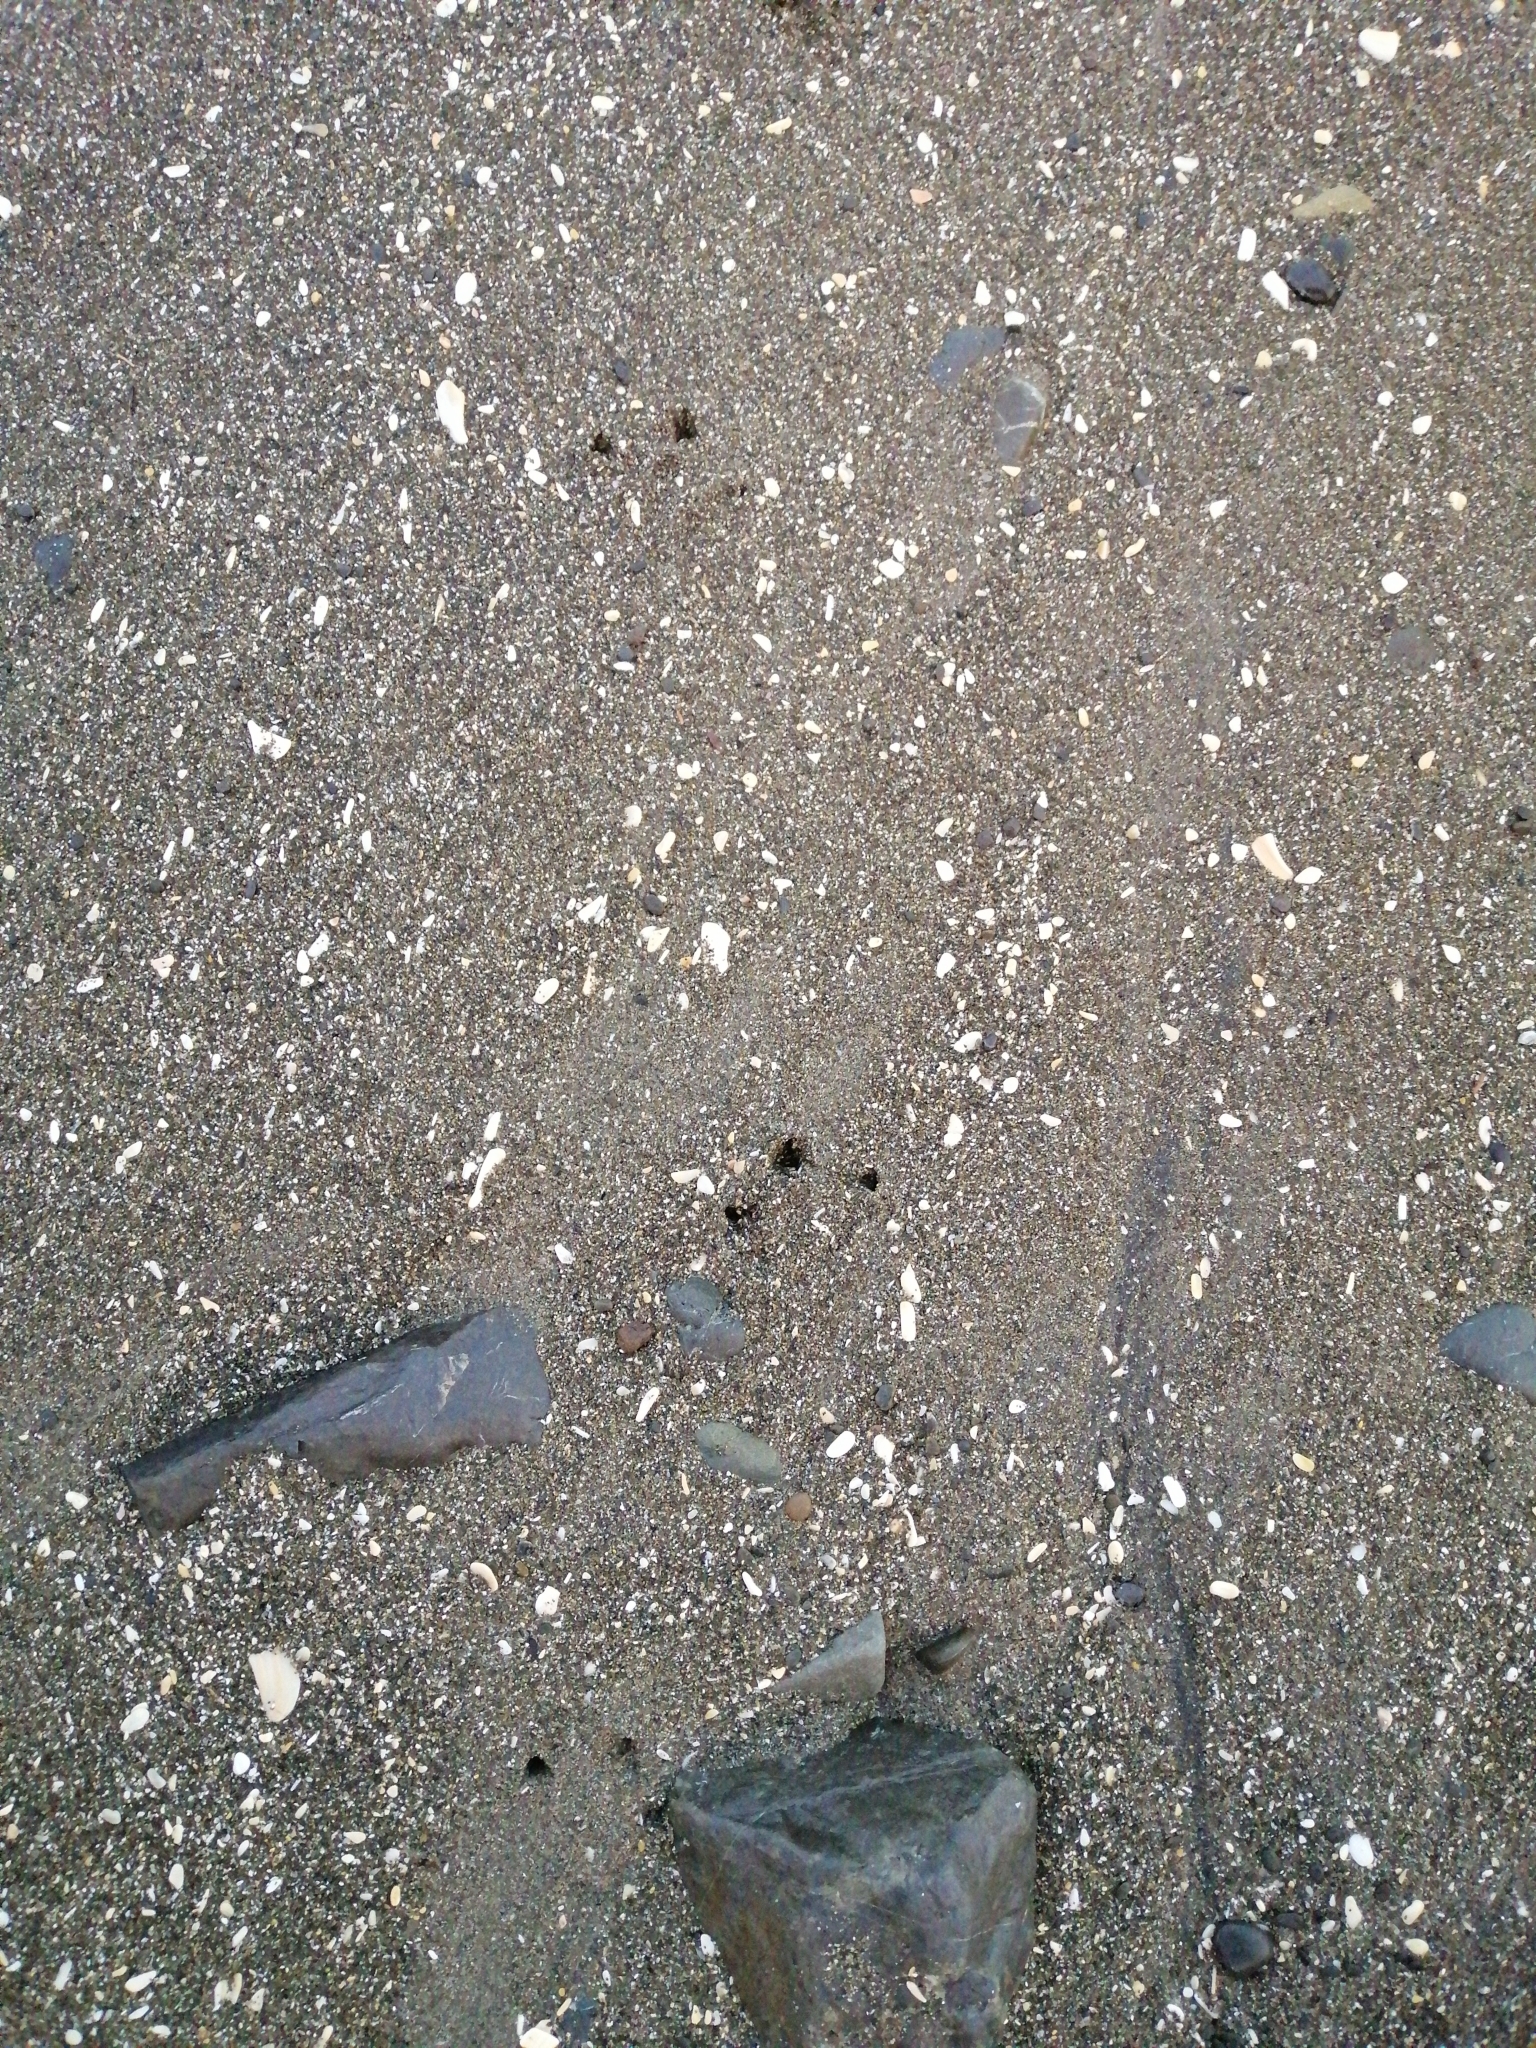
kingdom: Animalia
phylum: Chordata
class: Aves
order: Sphenisciformes
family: Spheniscidae
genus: Eudyptula
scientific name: Eudyptula minor
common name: Little penguin
